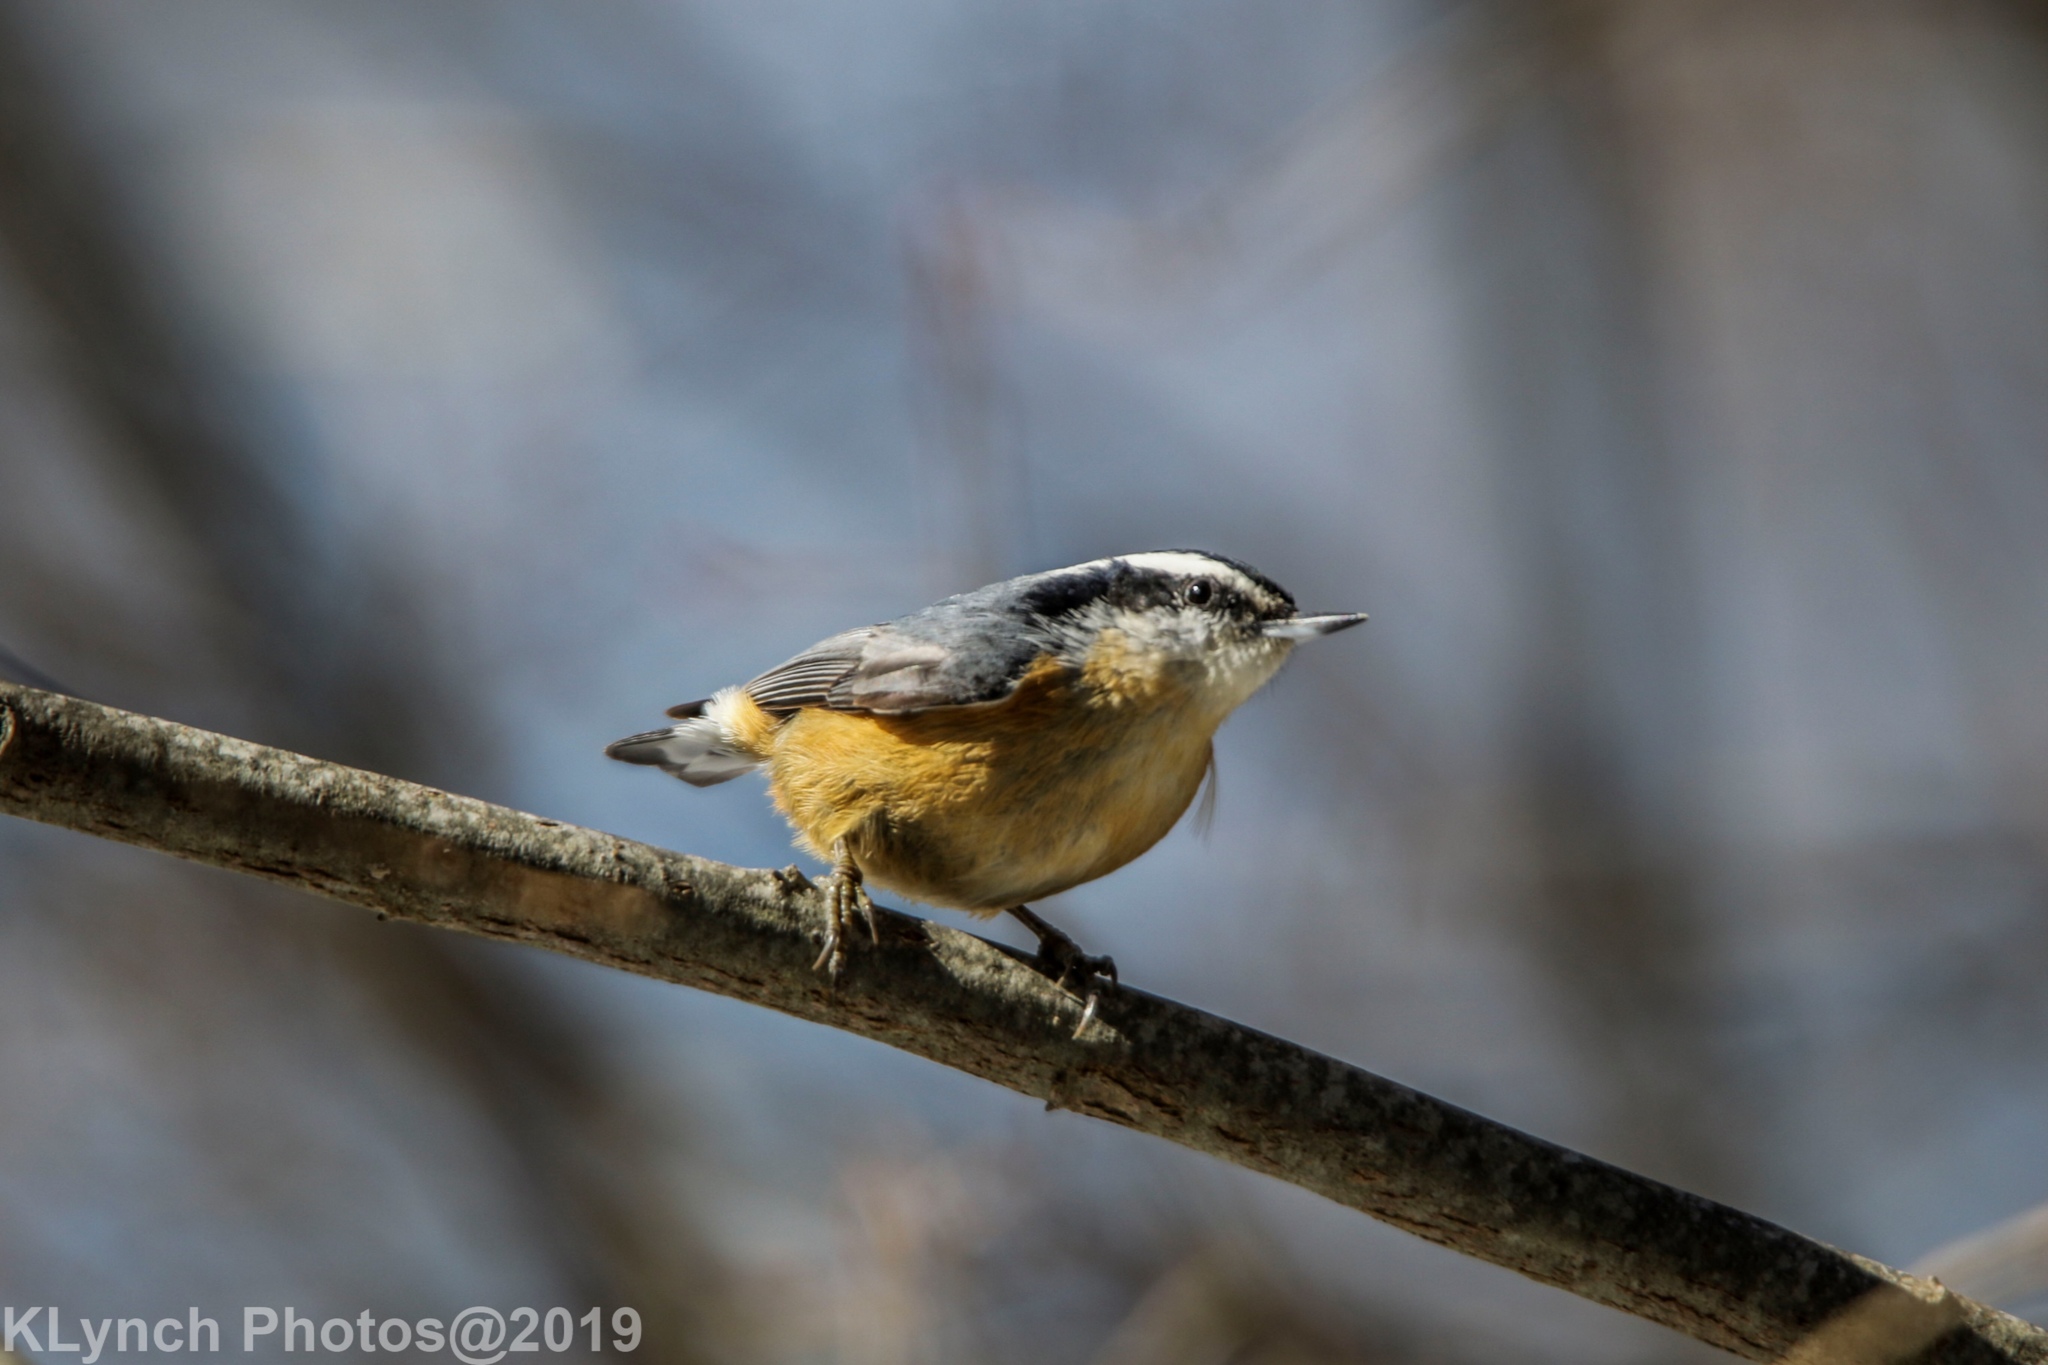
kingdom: Animalia
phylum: Chordata
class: Aves
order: Passeriformes
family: Sittidae
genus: Sitta
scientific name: Sitta canadensis
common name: Red-breasted nuthatch
